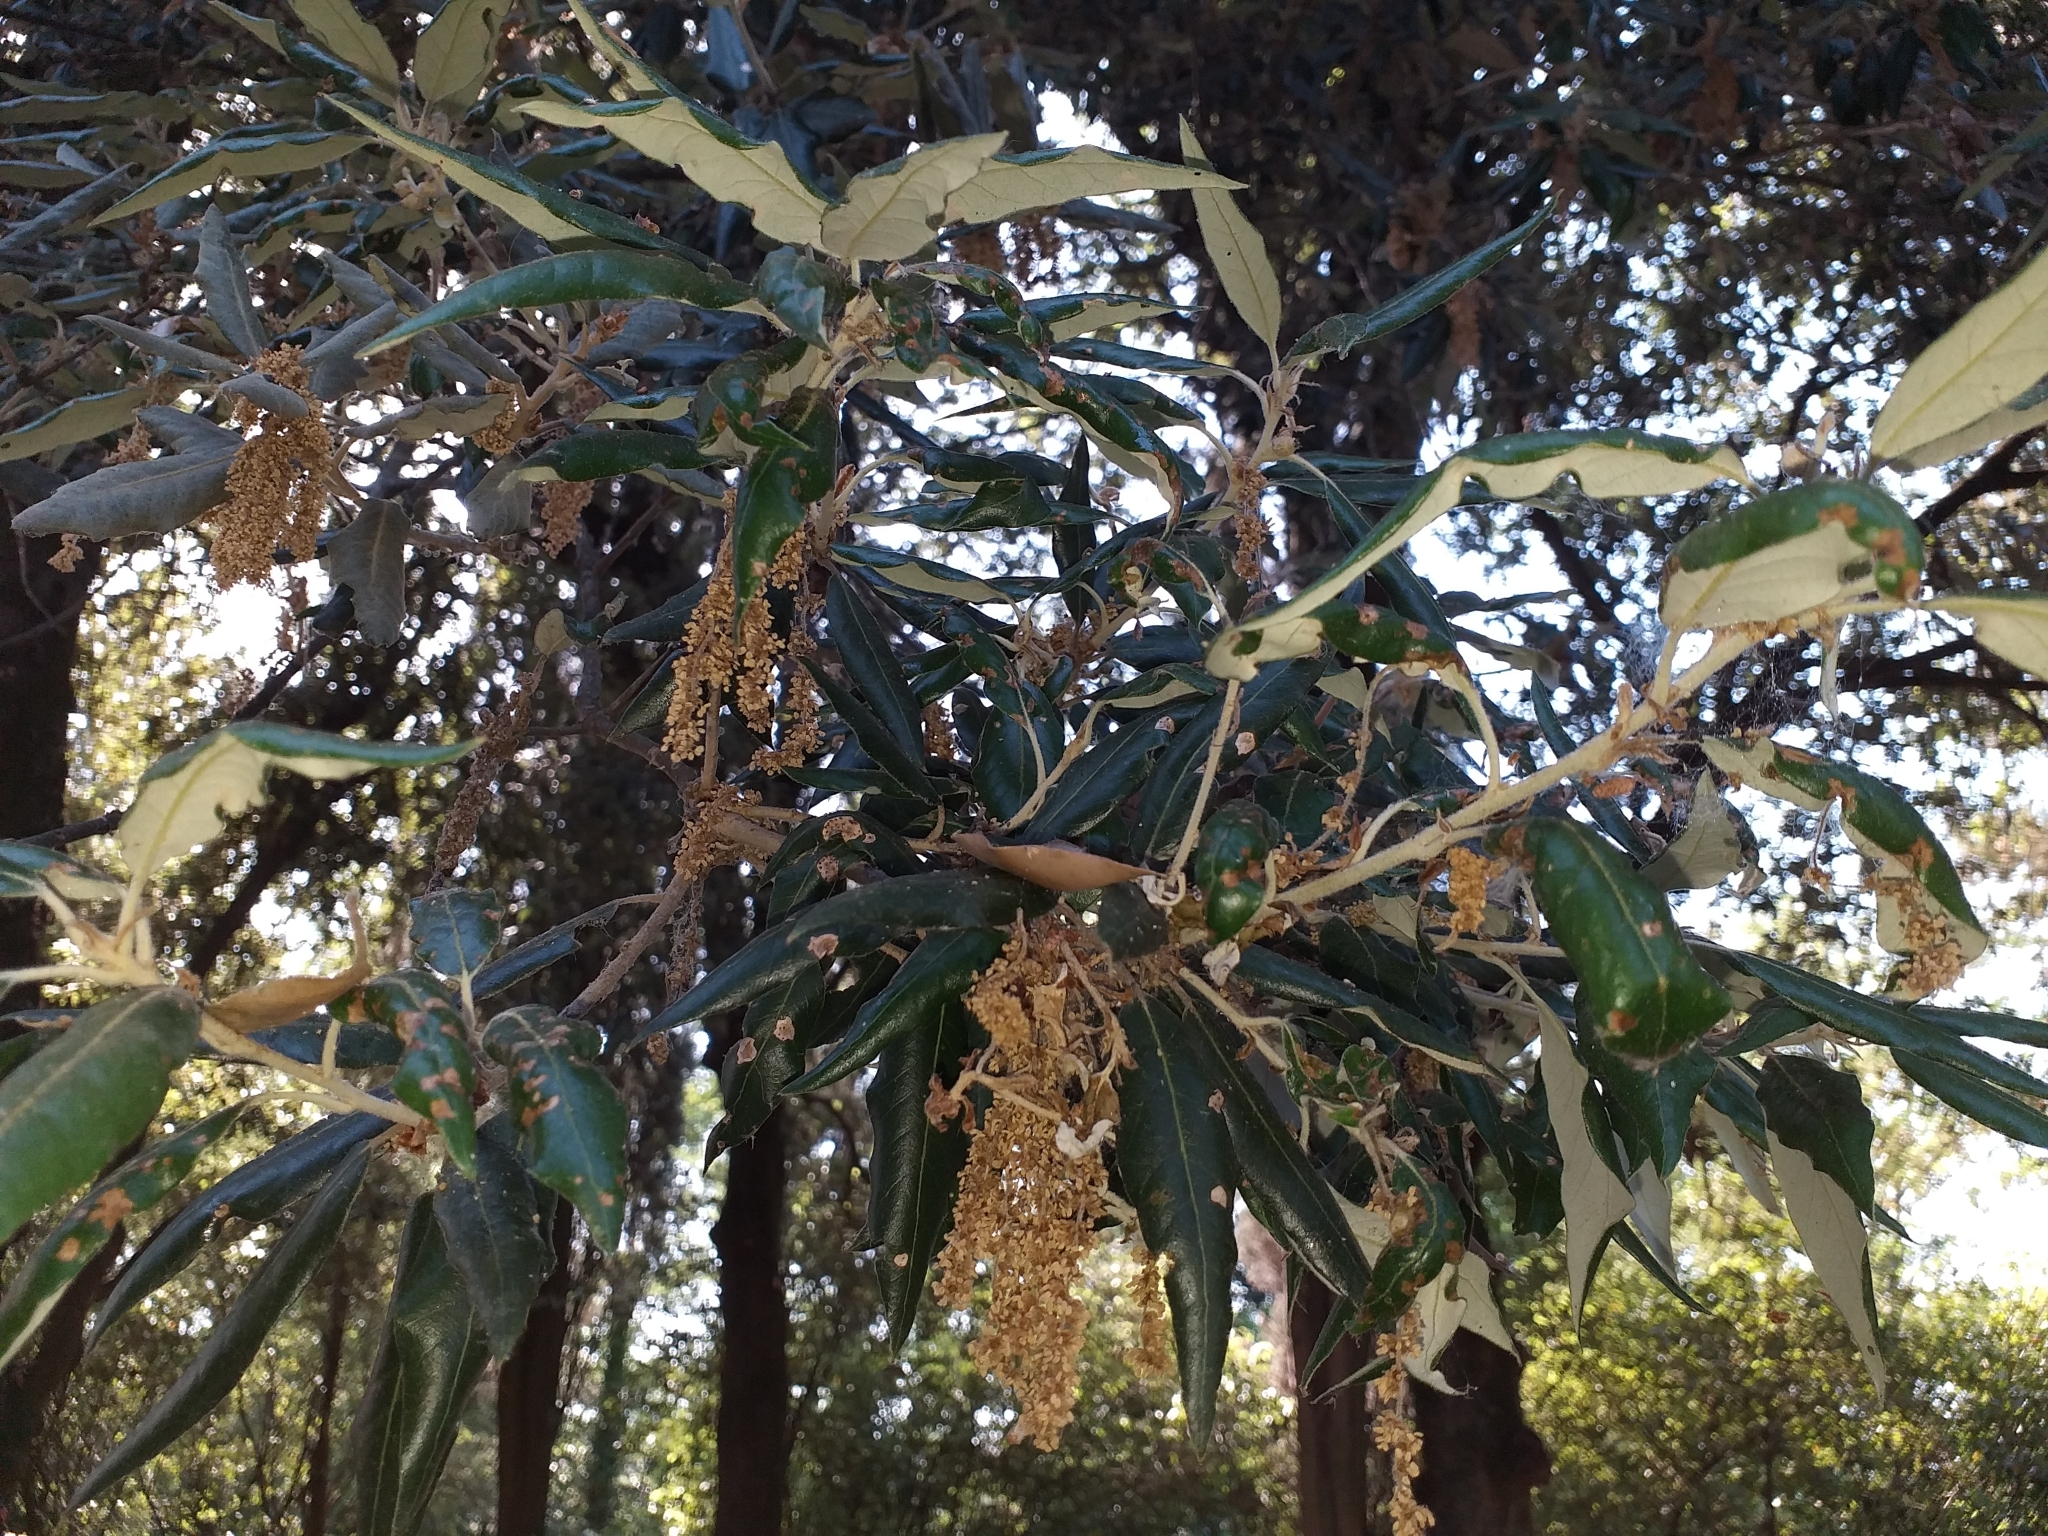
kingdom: Plantae
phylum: Tracheophyta
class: Magnoliopsida
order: Fagales
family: Fagaceae
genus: Quercus
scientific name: Quercus ilex
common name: Evergreen oak
